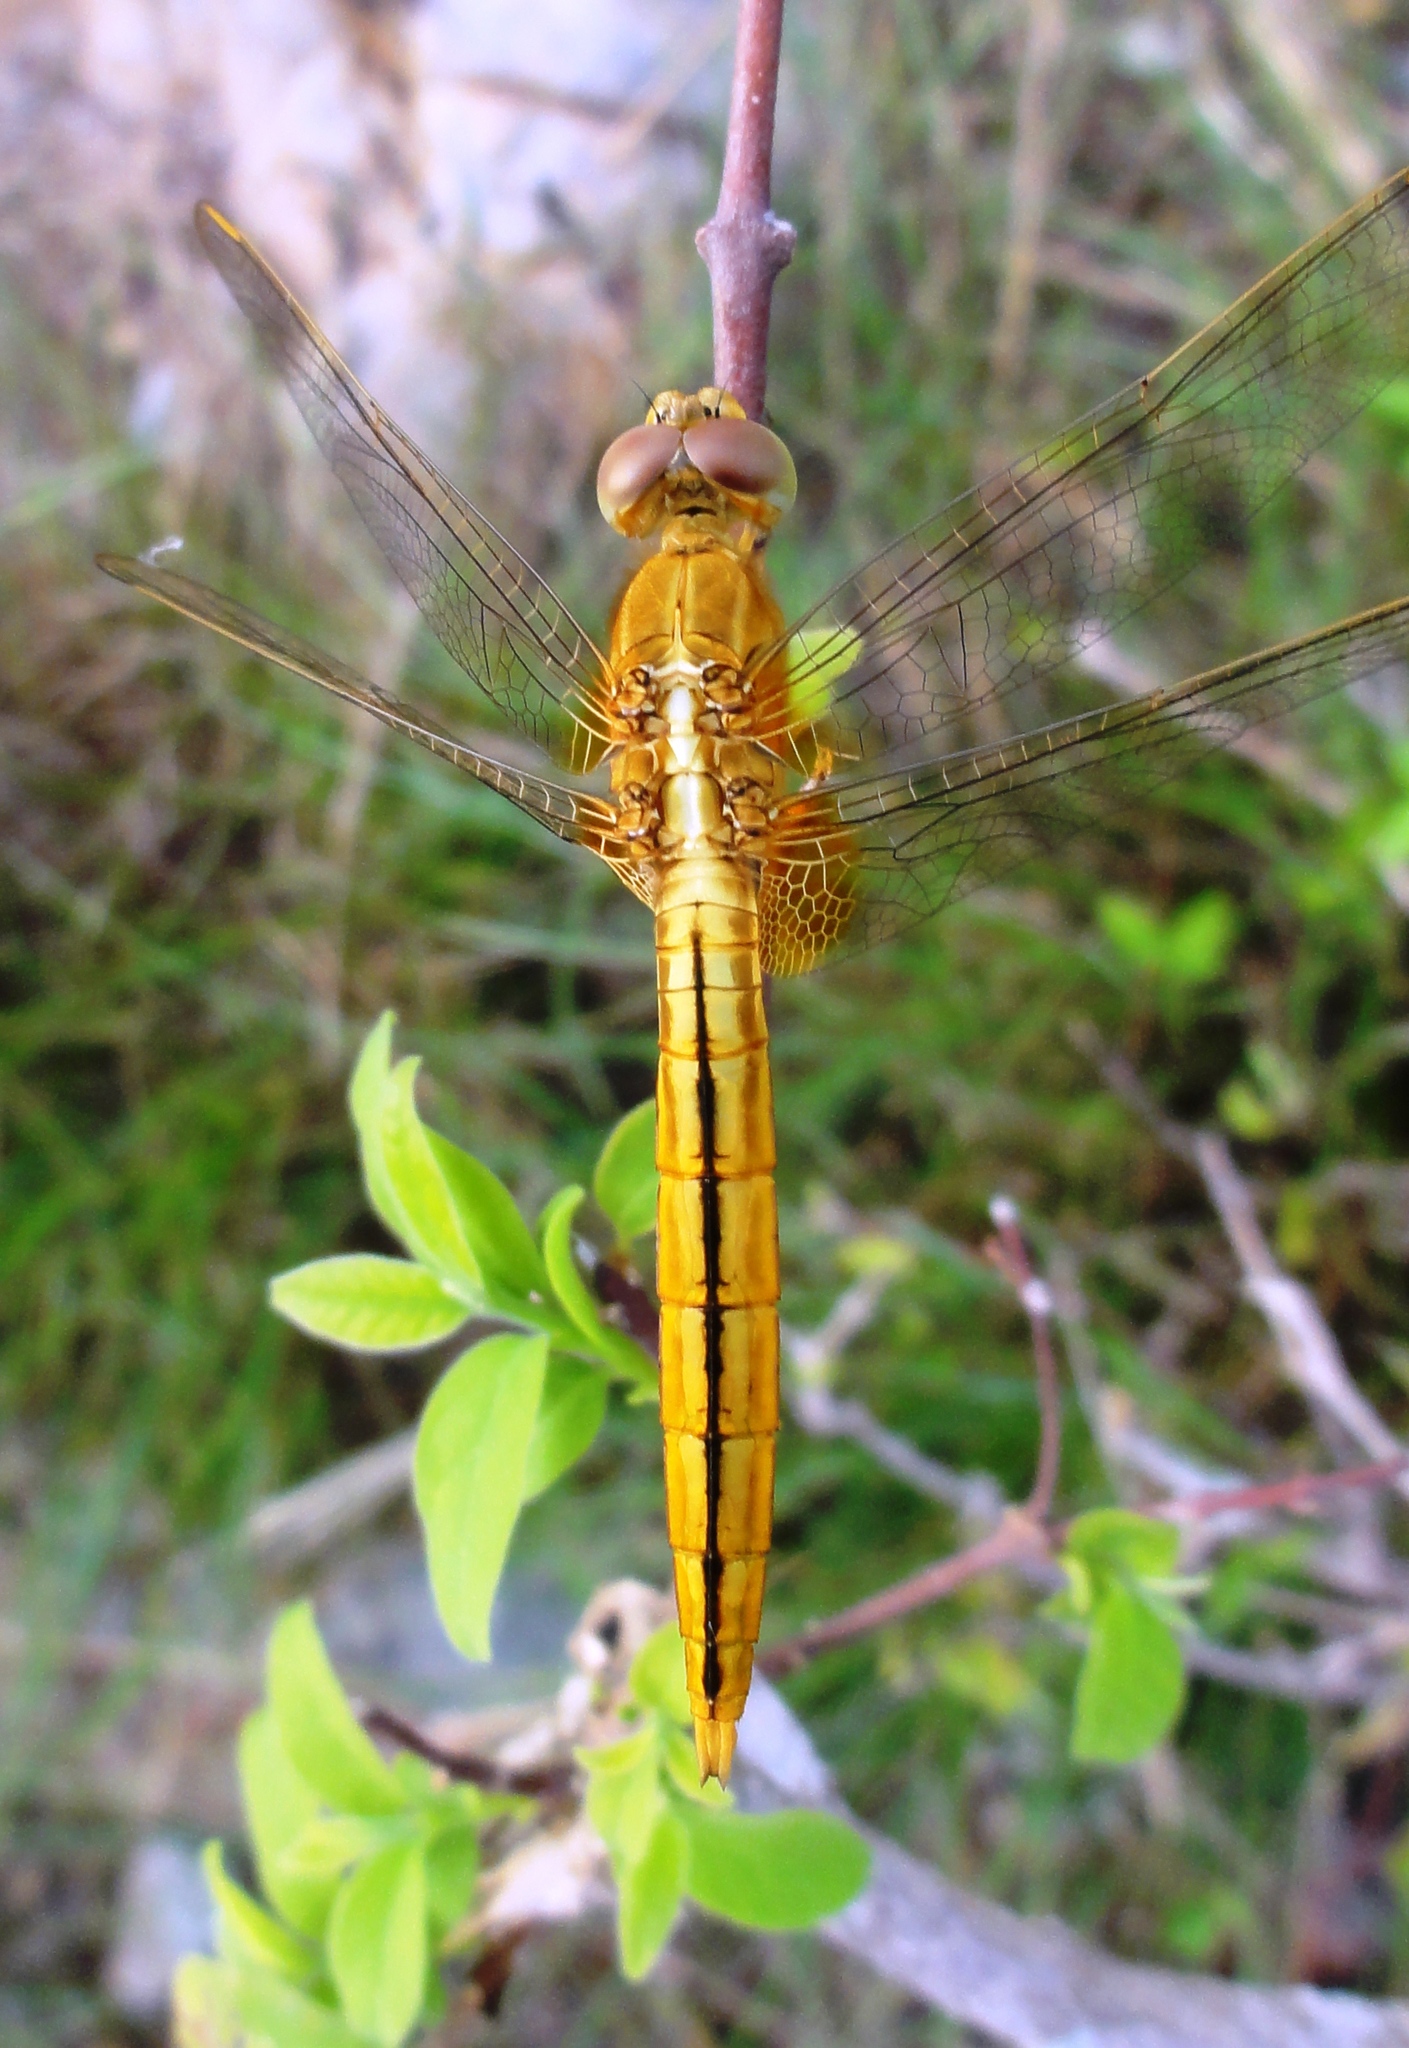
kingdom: Animalia
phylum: Arthropoda
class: Insecta
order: Odonata
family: Libellulidae
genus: Crocothemis
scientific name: Crocothemis servilia
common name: Scarlet skimmer
